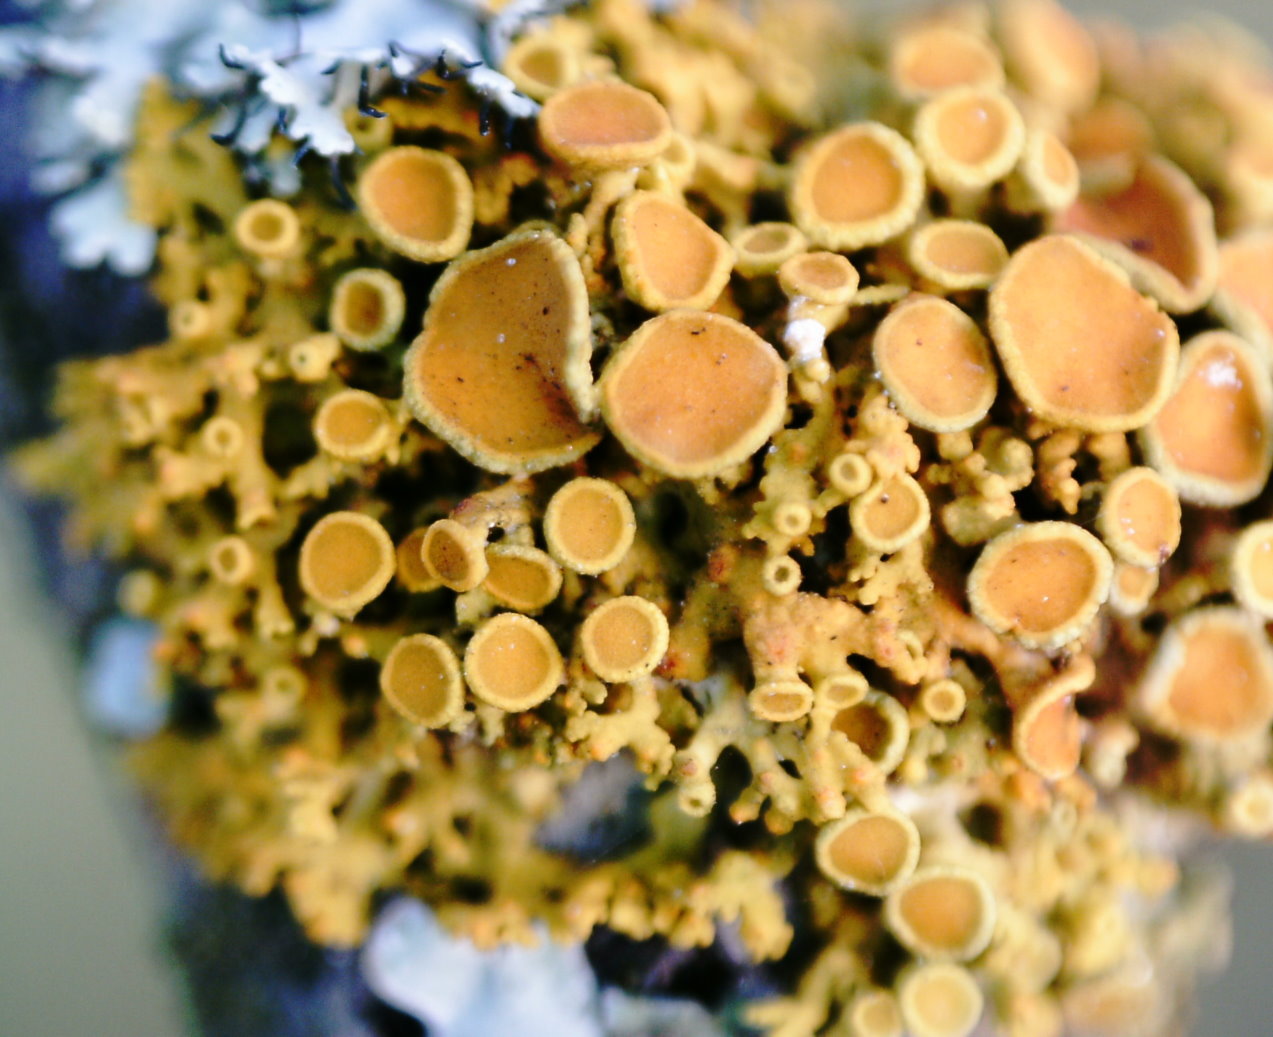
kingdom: Fungi
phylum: Ascomycota
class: Lecanoromycetes
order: Teloschistales
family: Teloschistaceae
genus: Polycauliona
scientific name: Polycauliona polycarpa
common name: Pin-cushion sunburst lichen
